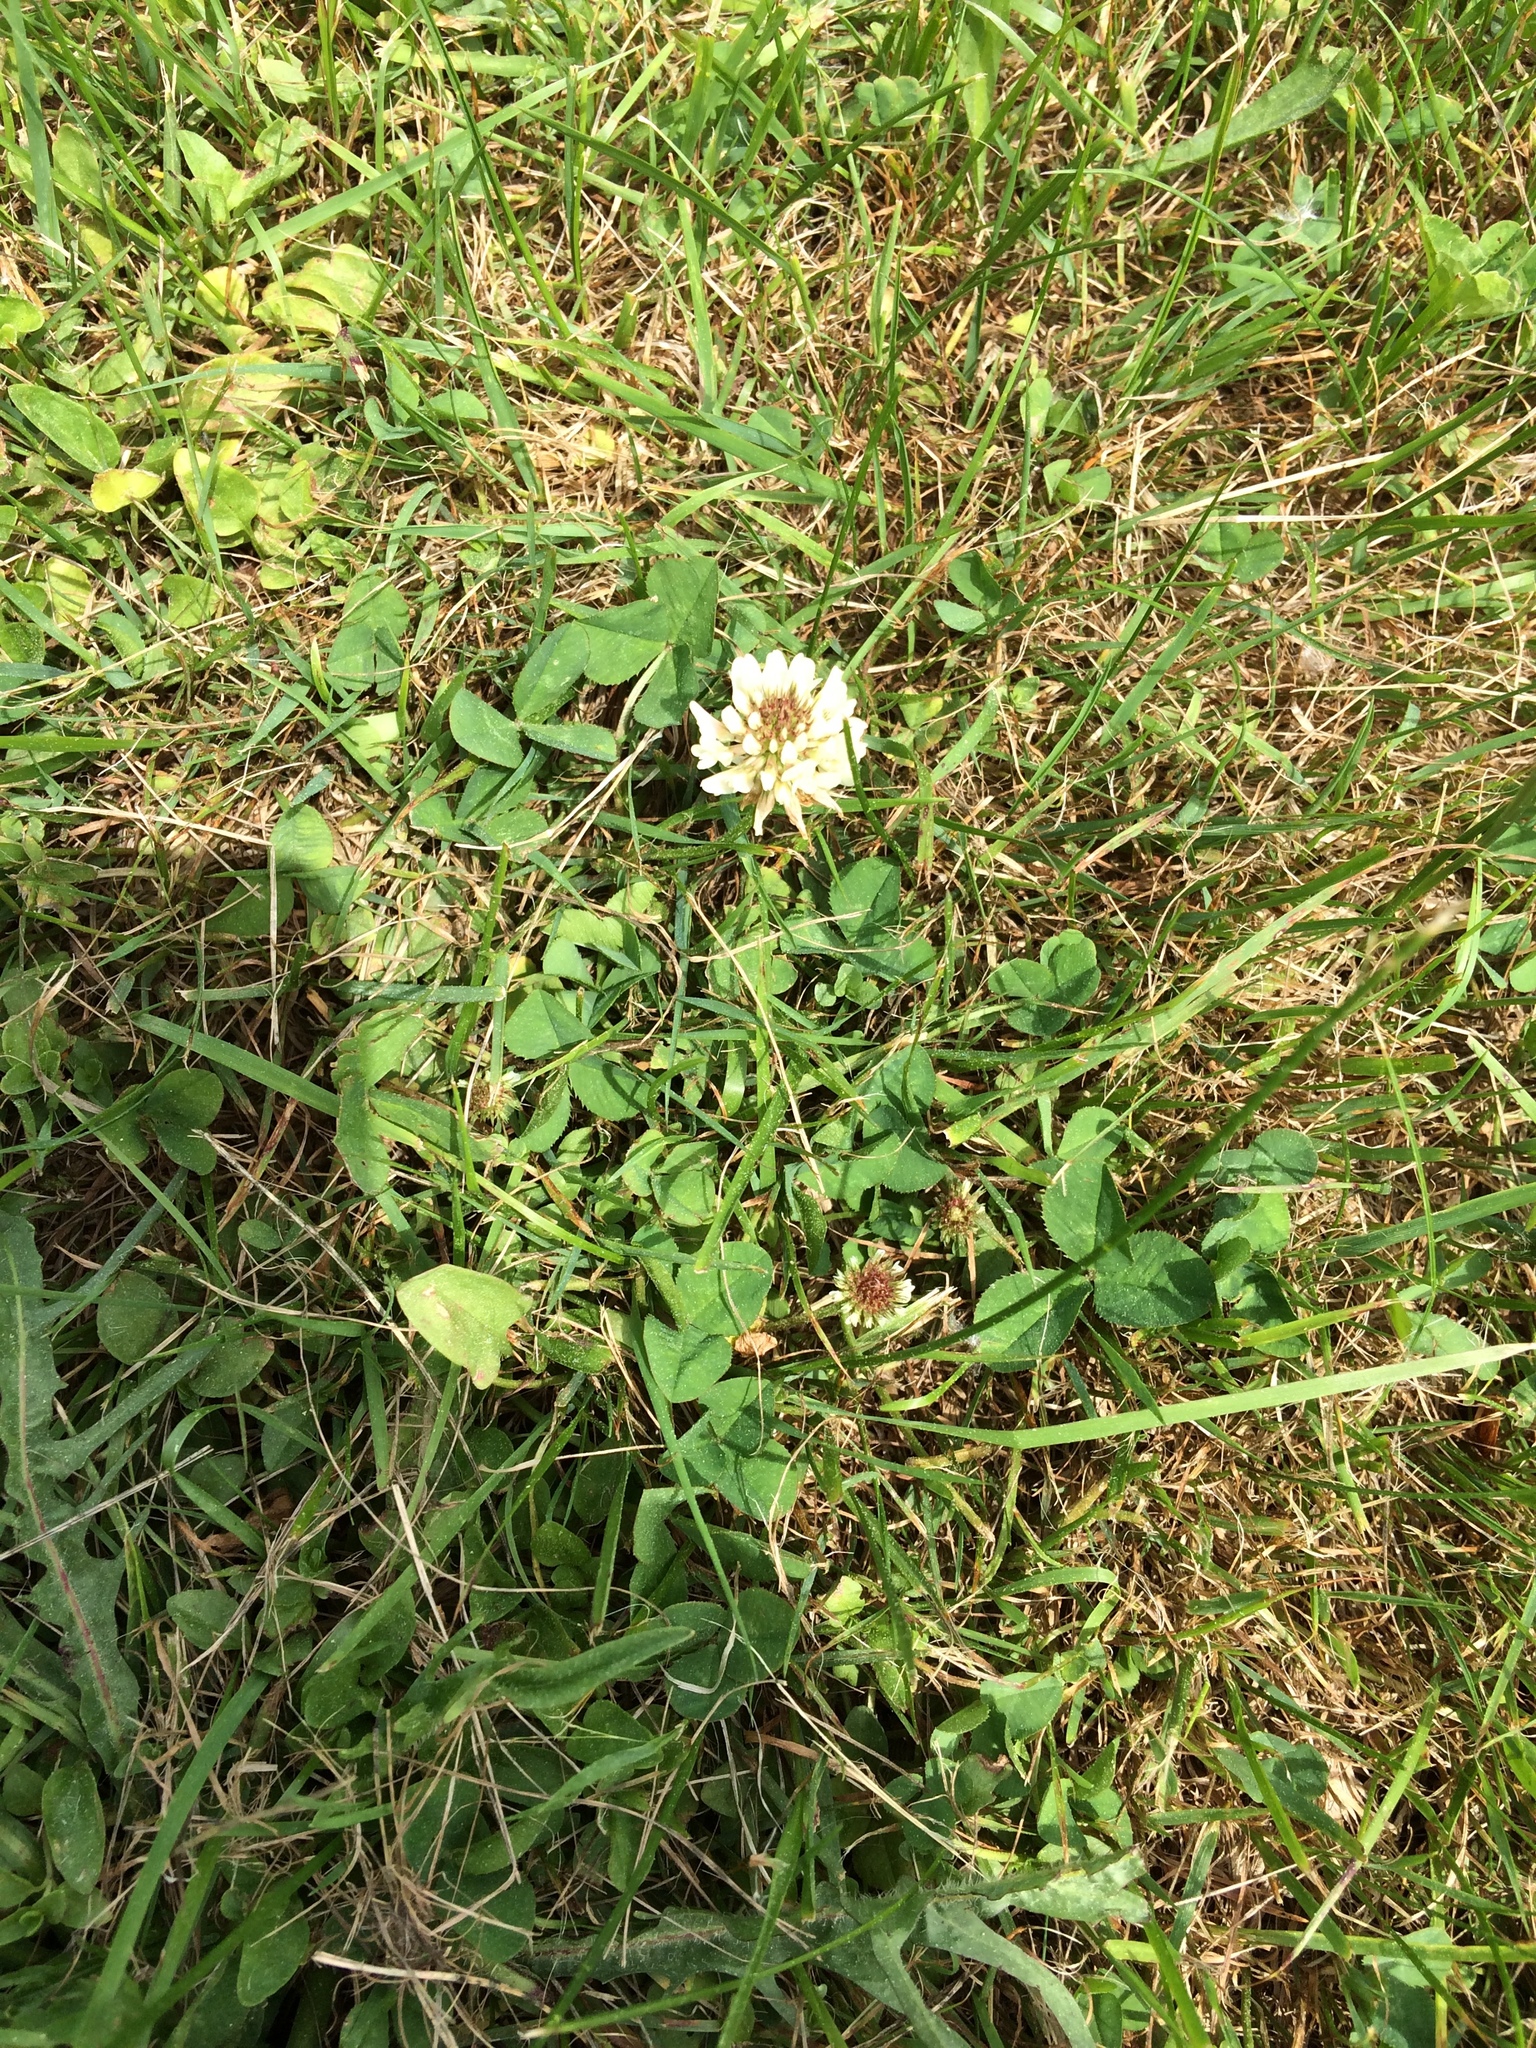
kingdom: Plantae
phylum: Tracheophyta
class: Magnoliopsida
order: Fabales
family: Fabaceae
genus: Trifolium
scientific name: Trifolium repens
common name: White clover
